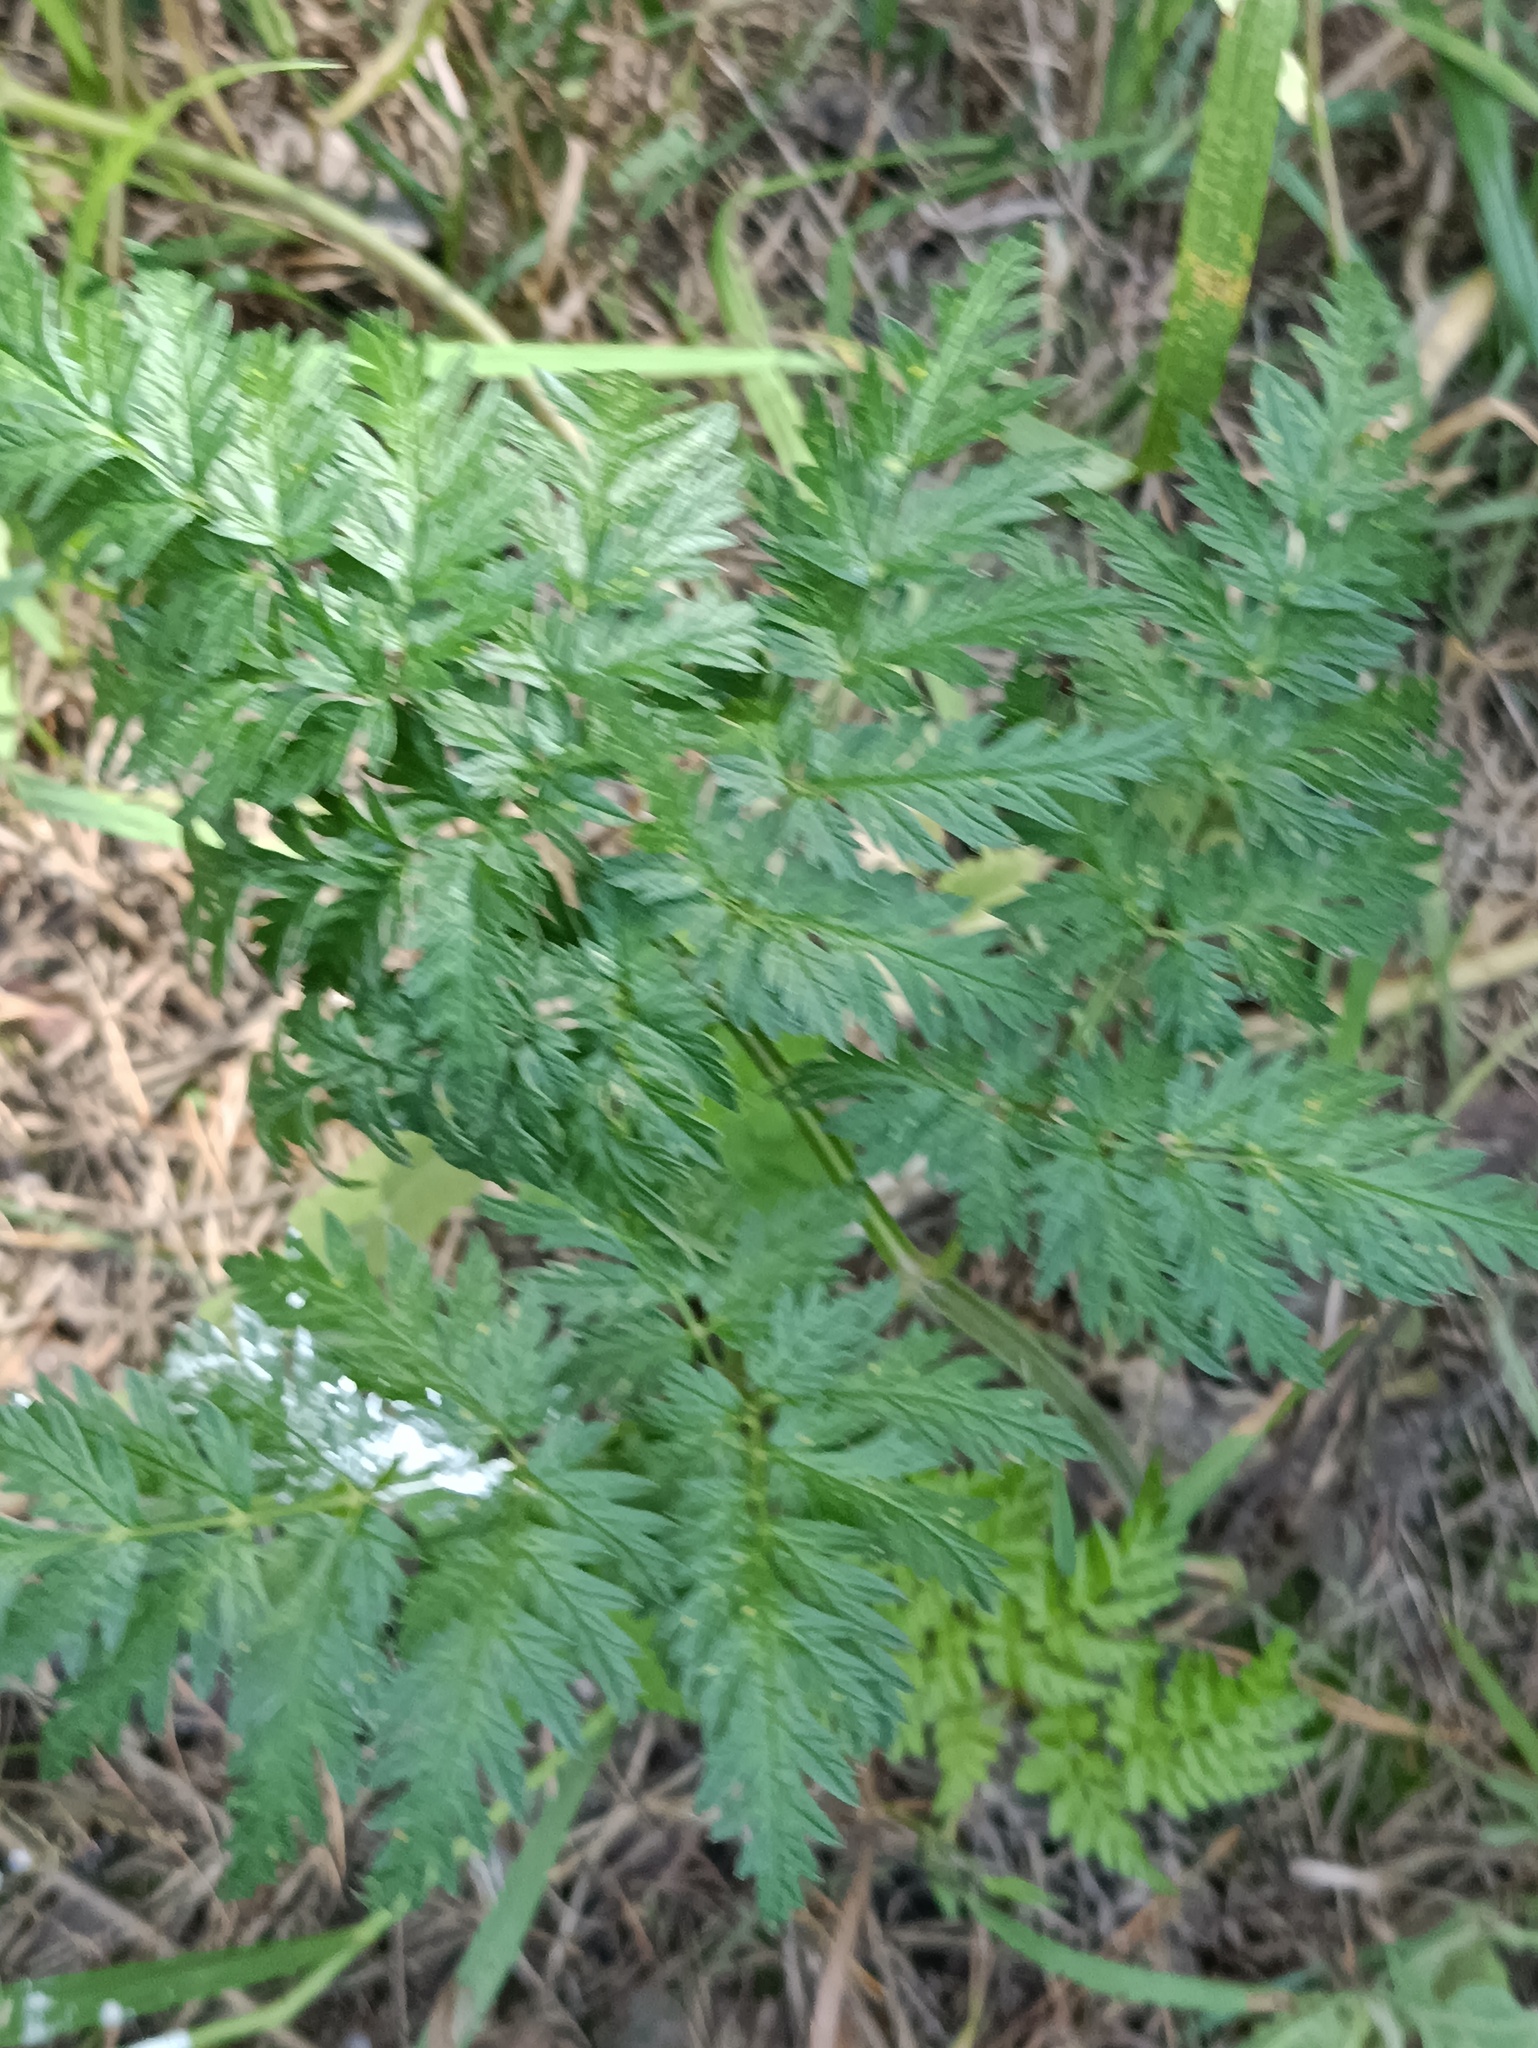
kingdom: Plantae
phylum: Tracheophyta
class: Magnoliopsida
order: Apiales
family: Apiaceae
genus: Anthriscus
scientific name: Anthriscus sylvestris
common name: Cow parsley
